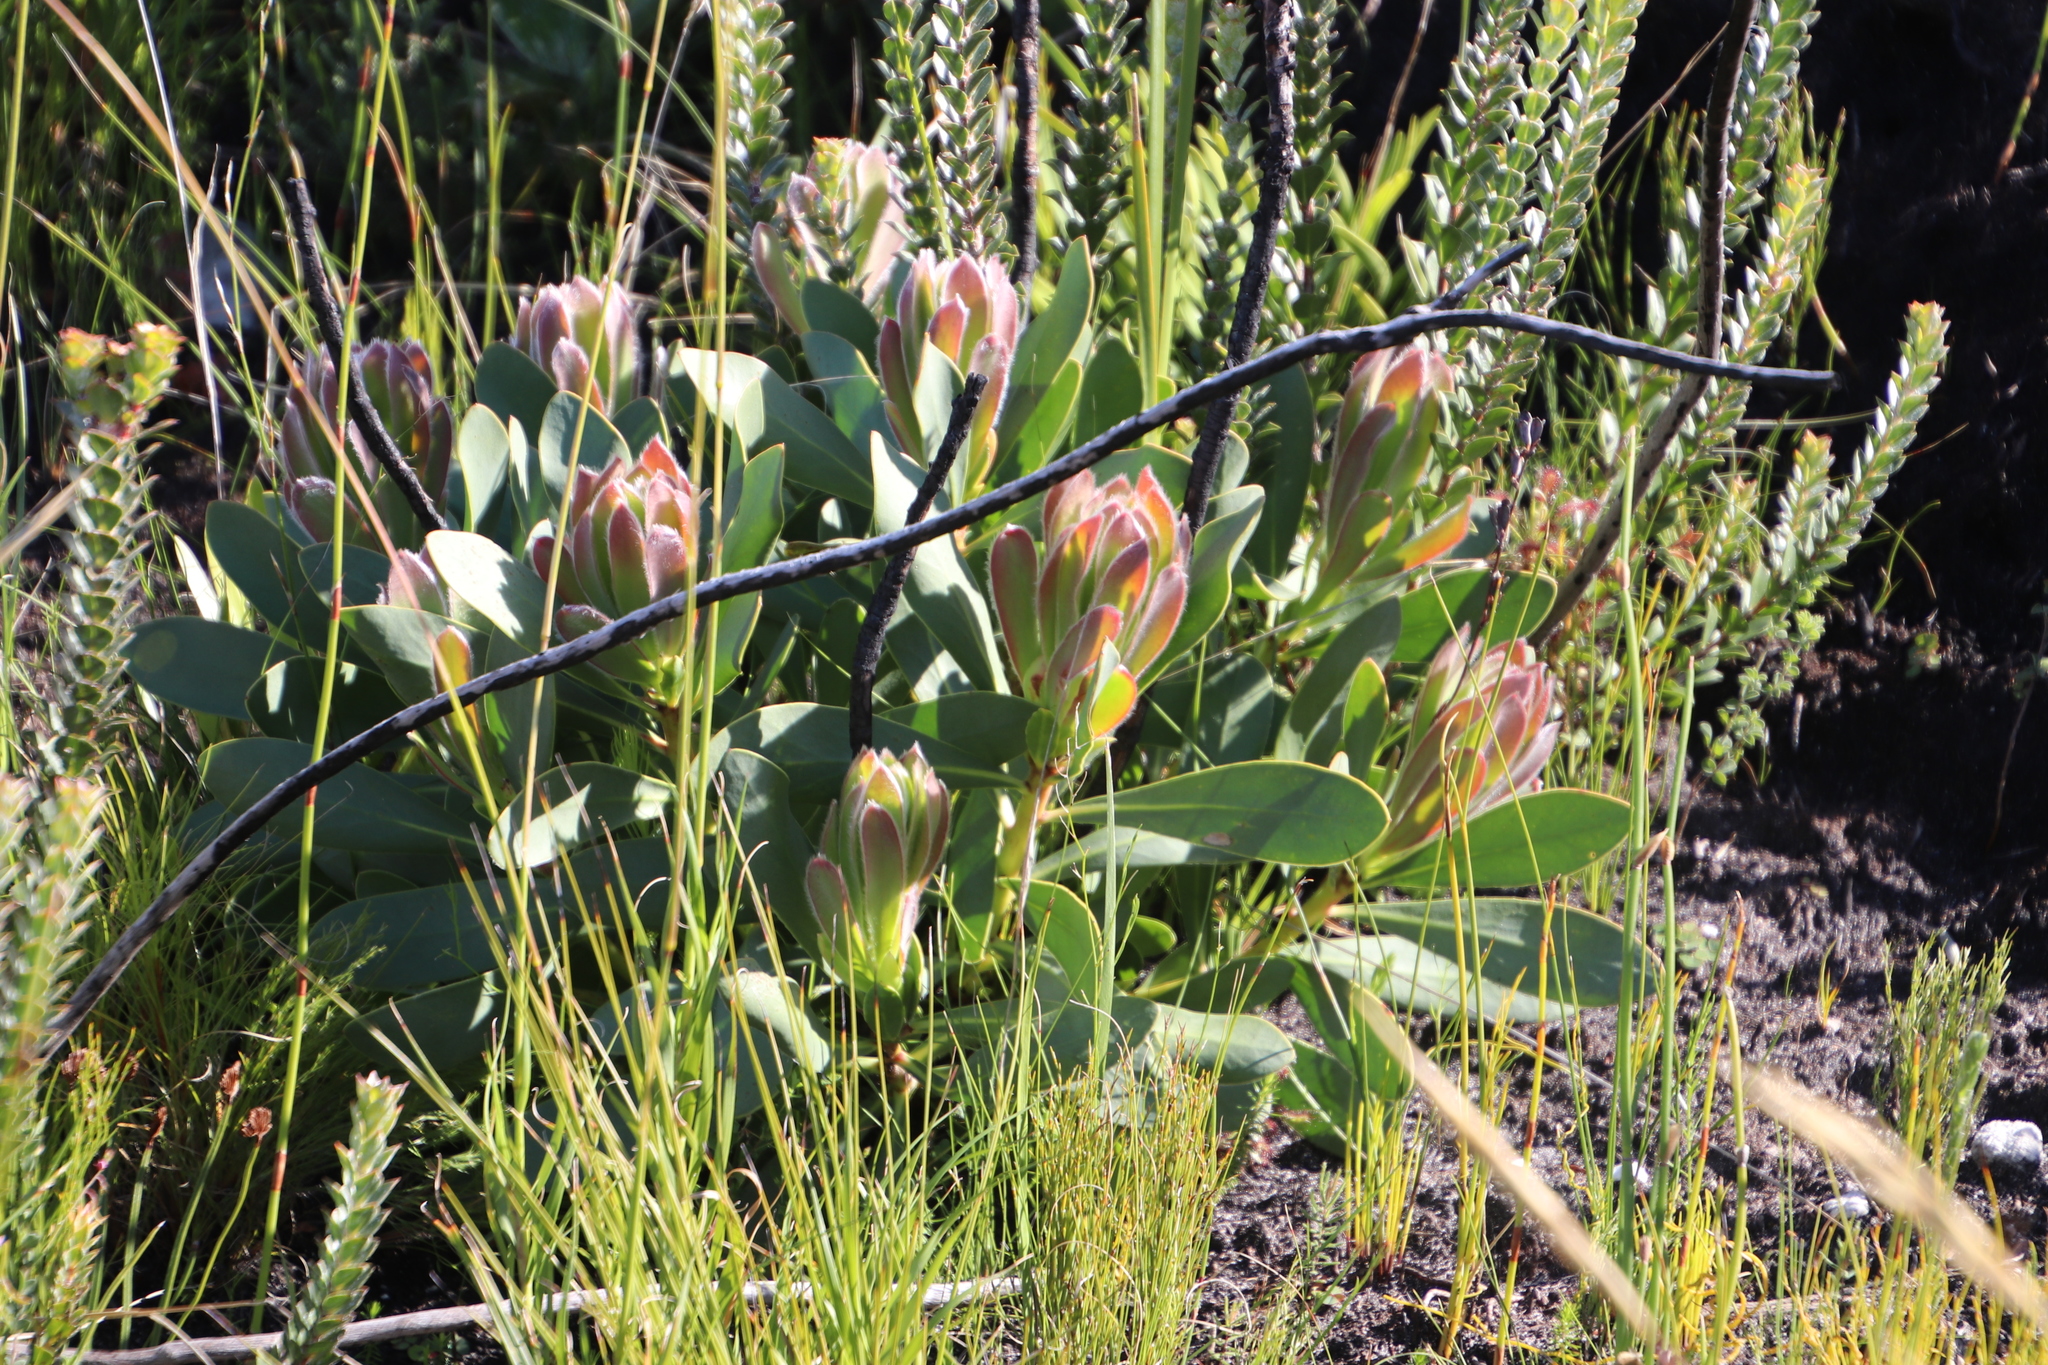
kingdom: Plantae
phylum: Tracheophyta
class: Magnoliopsida
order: Proteales
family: Proteaceae
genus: Protea
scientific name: Protea speciosa
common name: Brown-beard sugarbush
